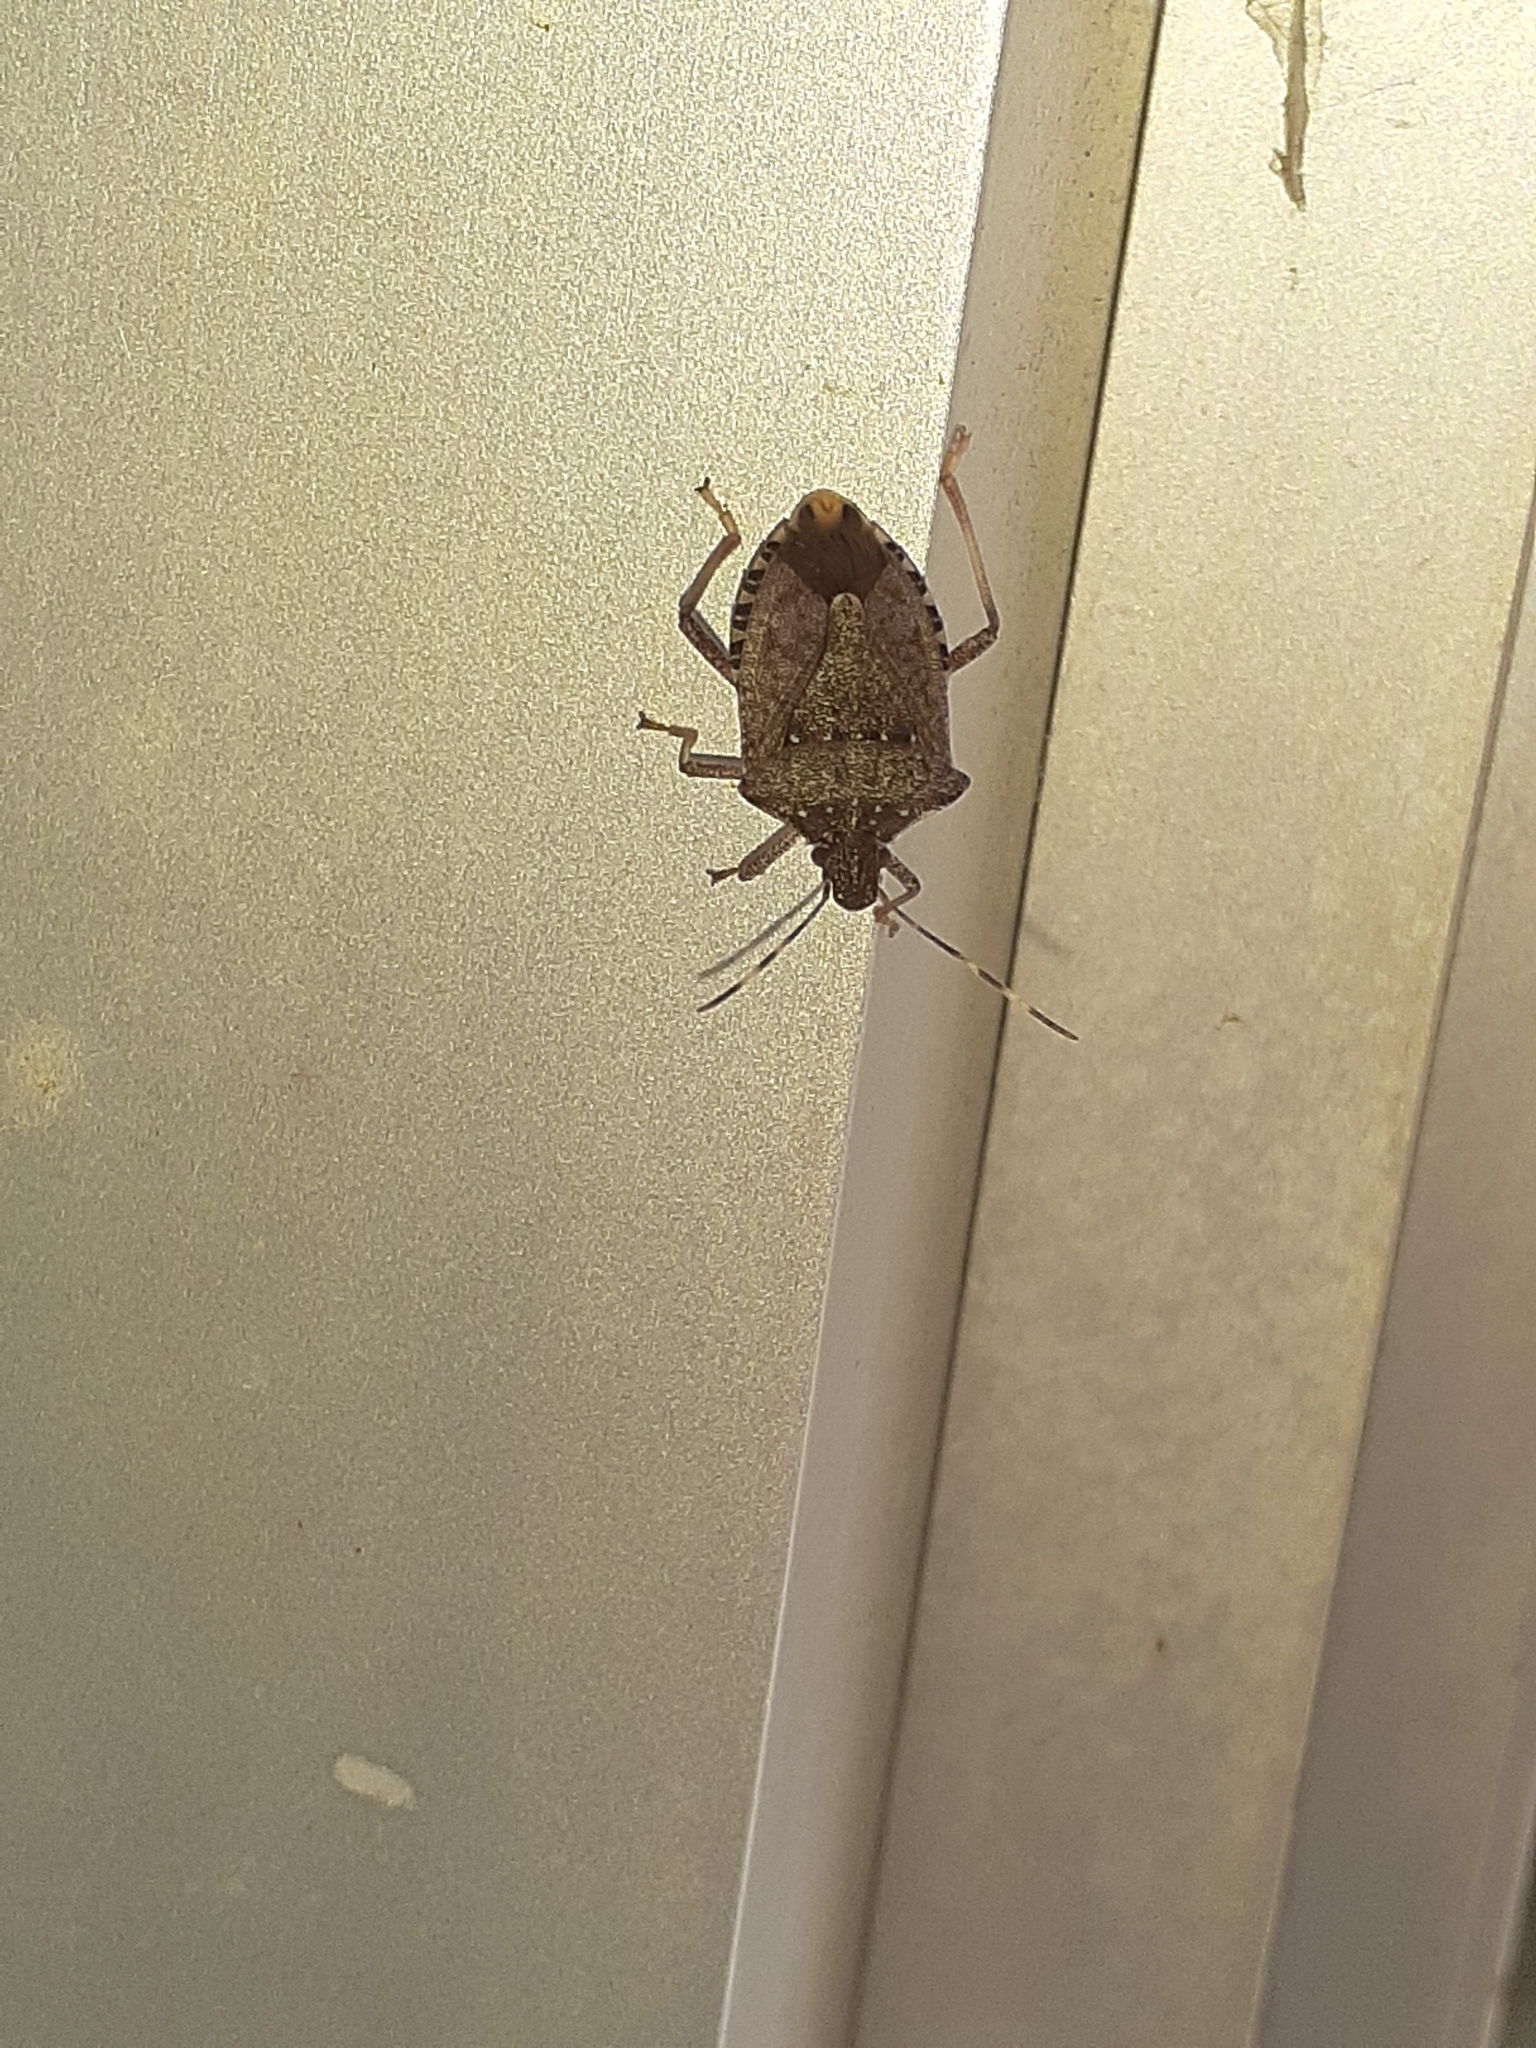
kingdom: Animalia
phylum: Arthropoda
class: Insecta
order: Hemiptera
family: Pentatomidae
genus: Halyomorpha
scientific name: Halyomorpha halys
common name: Brown marmorated stink bug
